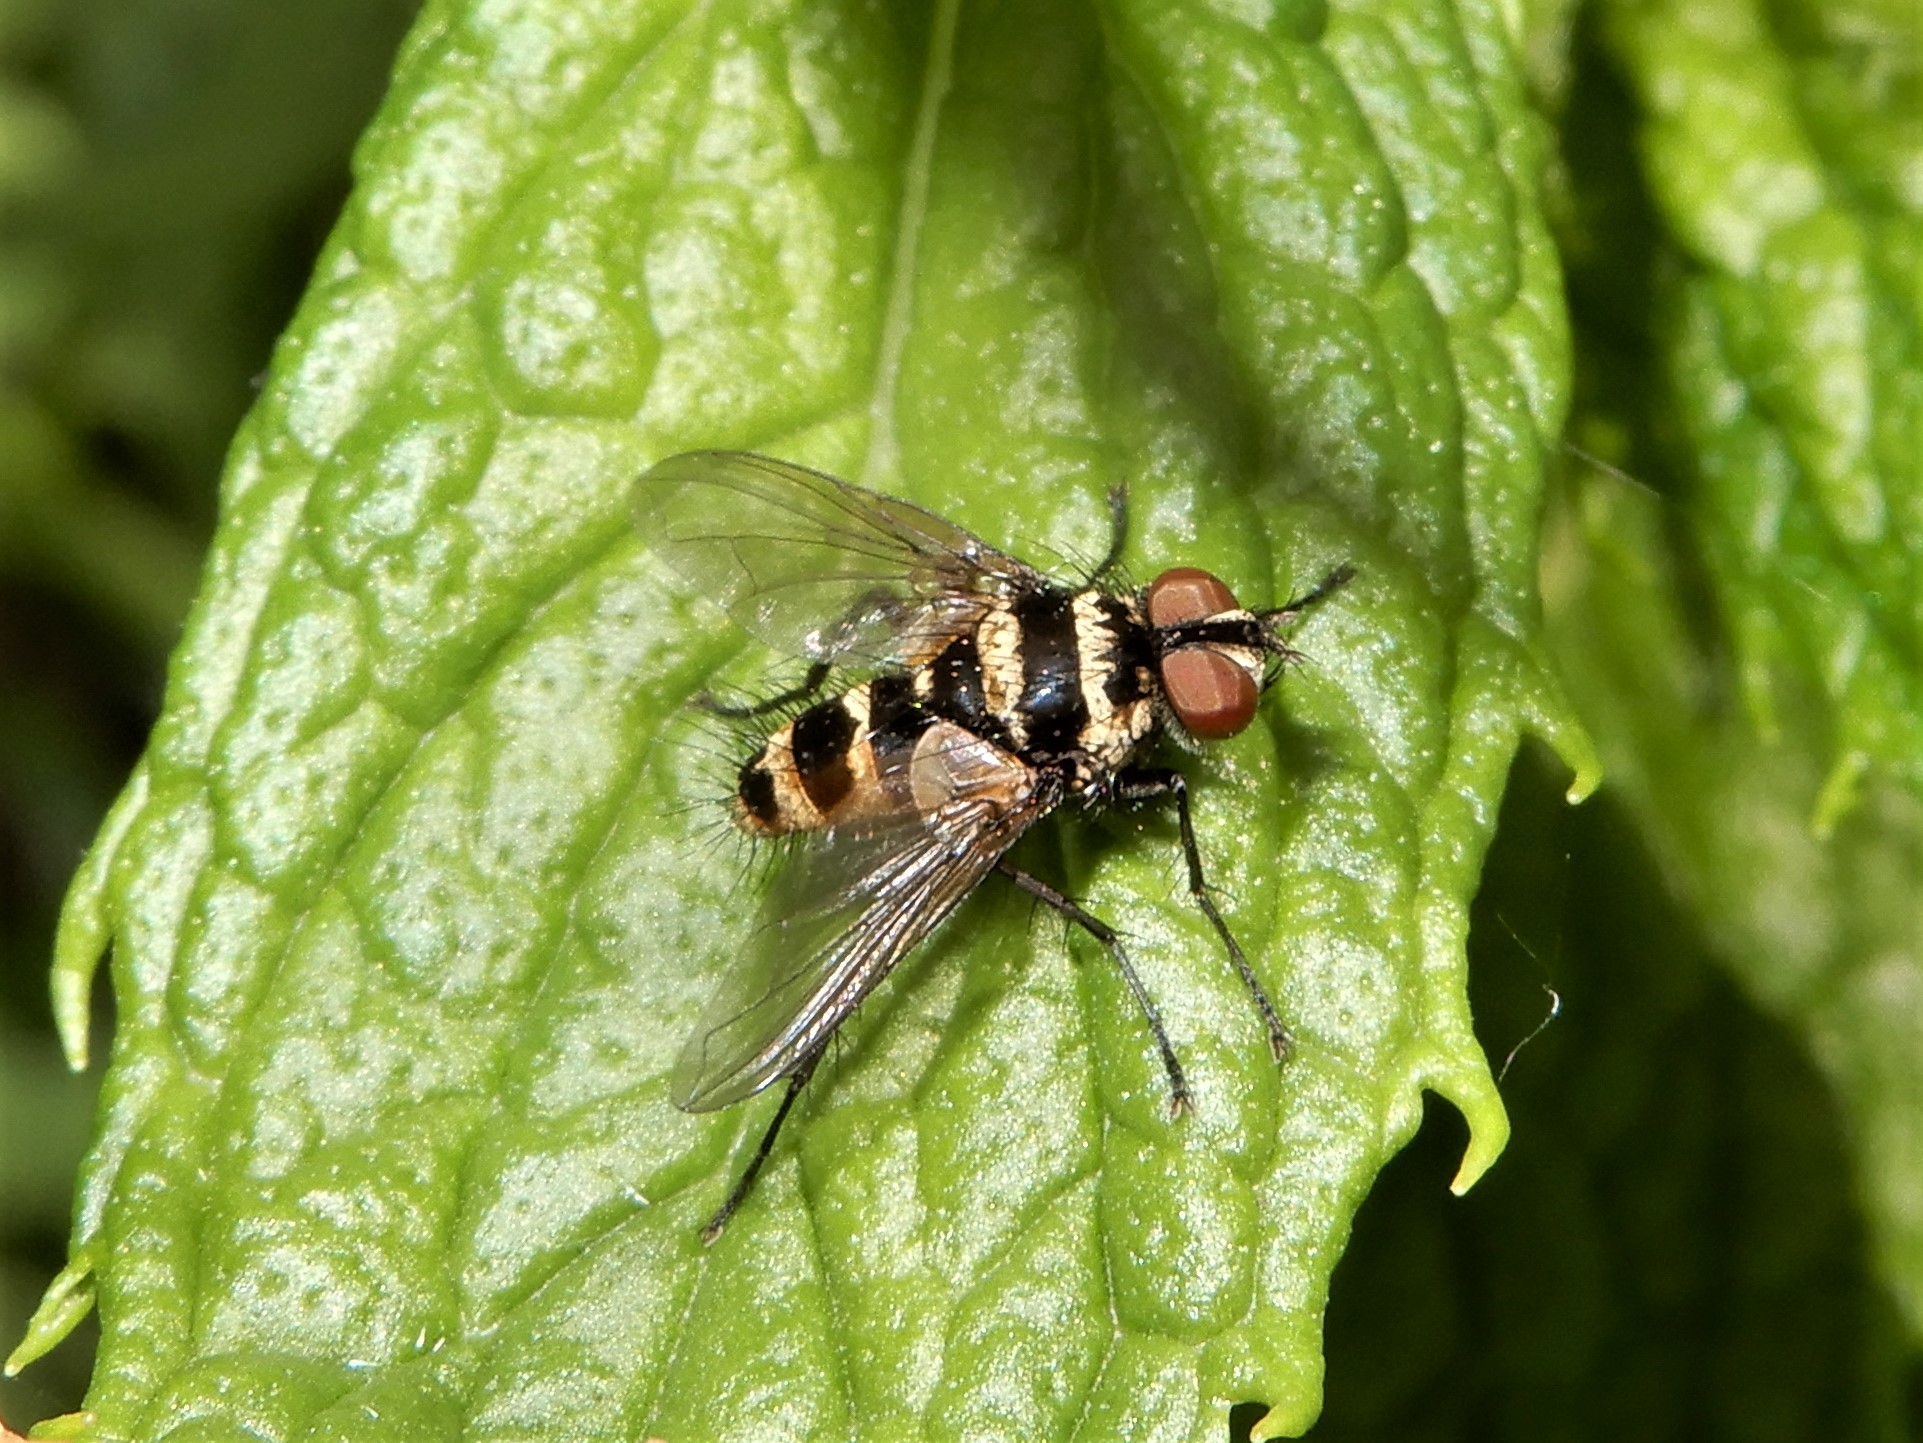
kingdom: Animalia
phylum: Arthropoda
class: Insecta
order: Diptera
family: Tachinidae
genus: Trigonospila
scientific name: Trigonospila brevifacies
